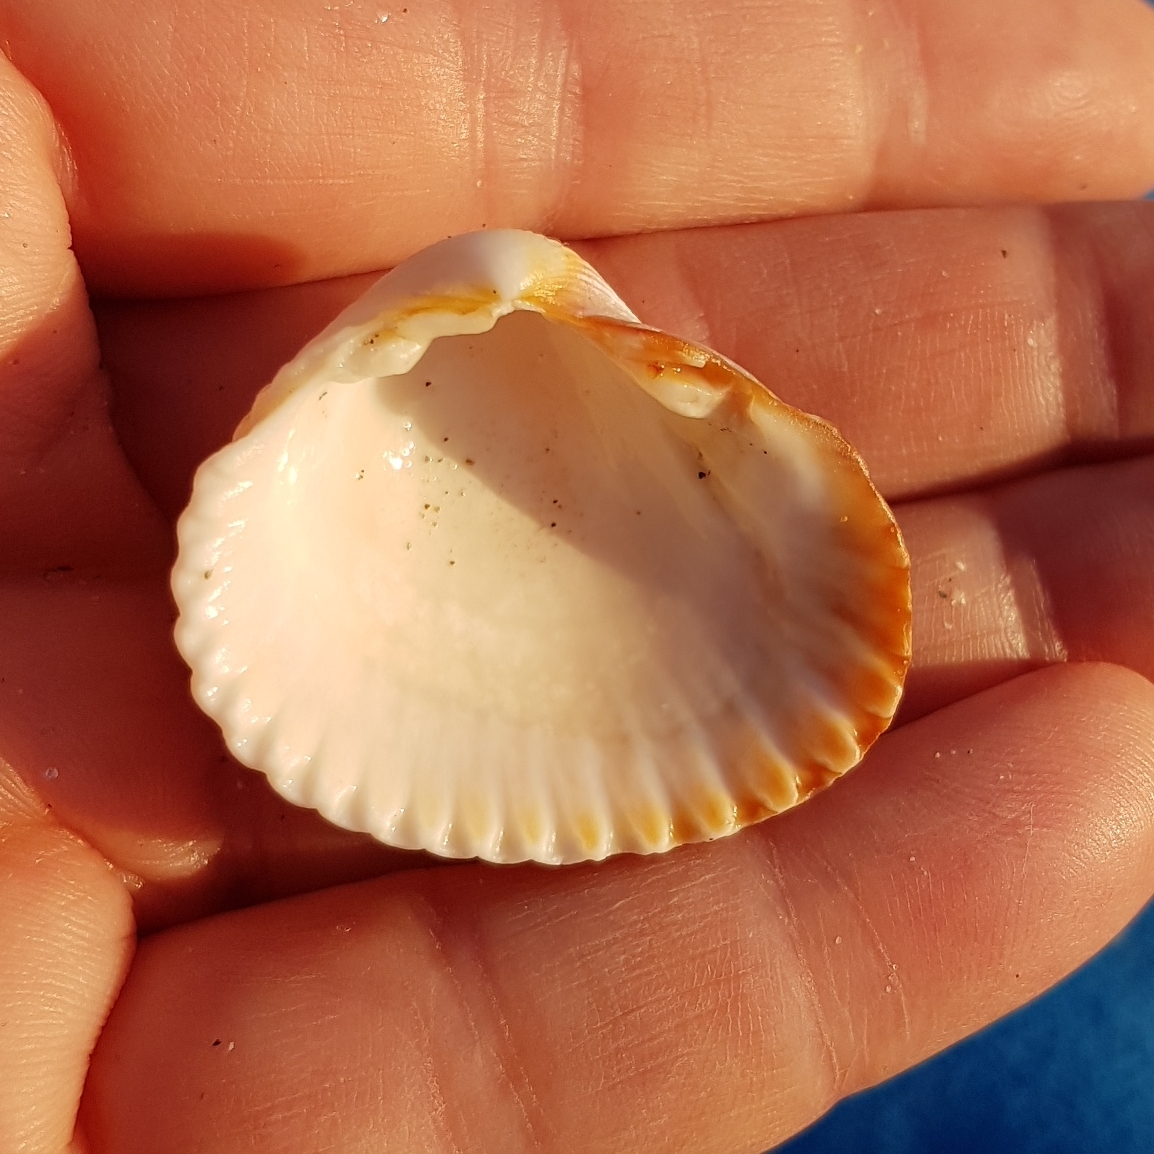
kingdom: Animalia
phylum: Mollusca
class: Bivalvia
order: Cardiida
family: Cardiidae
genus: Cerastoderma
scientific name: Cerastoderma glaucum
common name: Lagoon cockle
